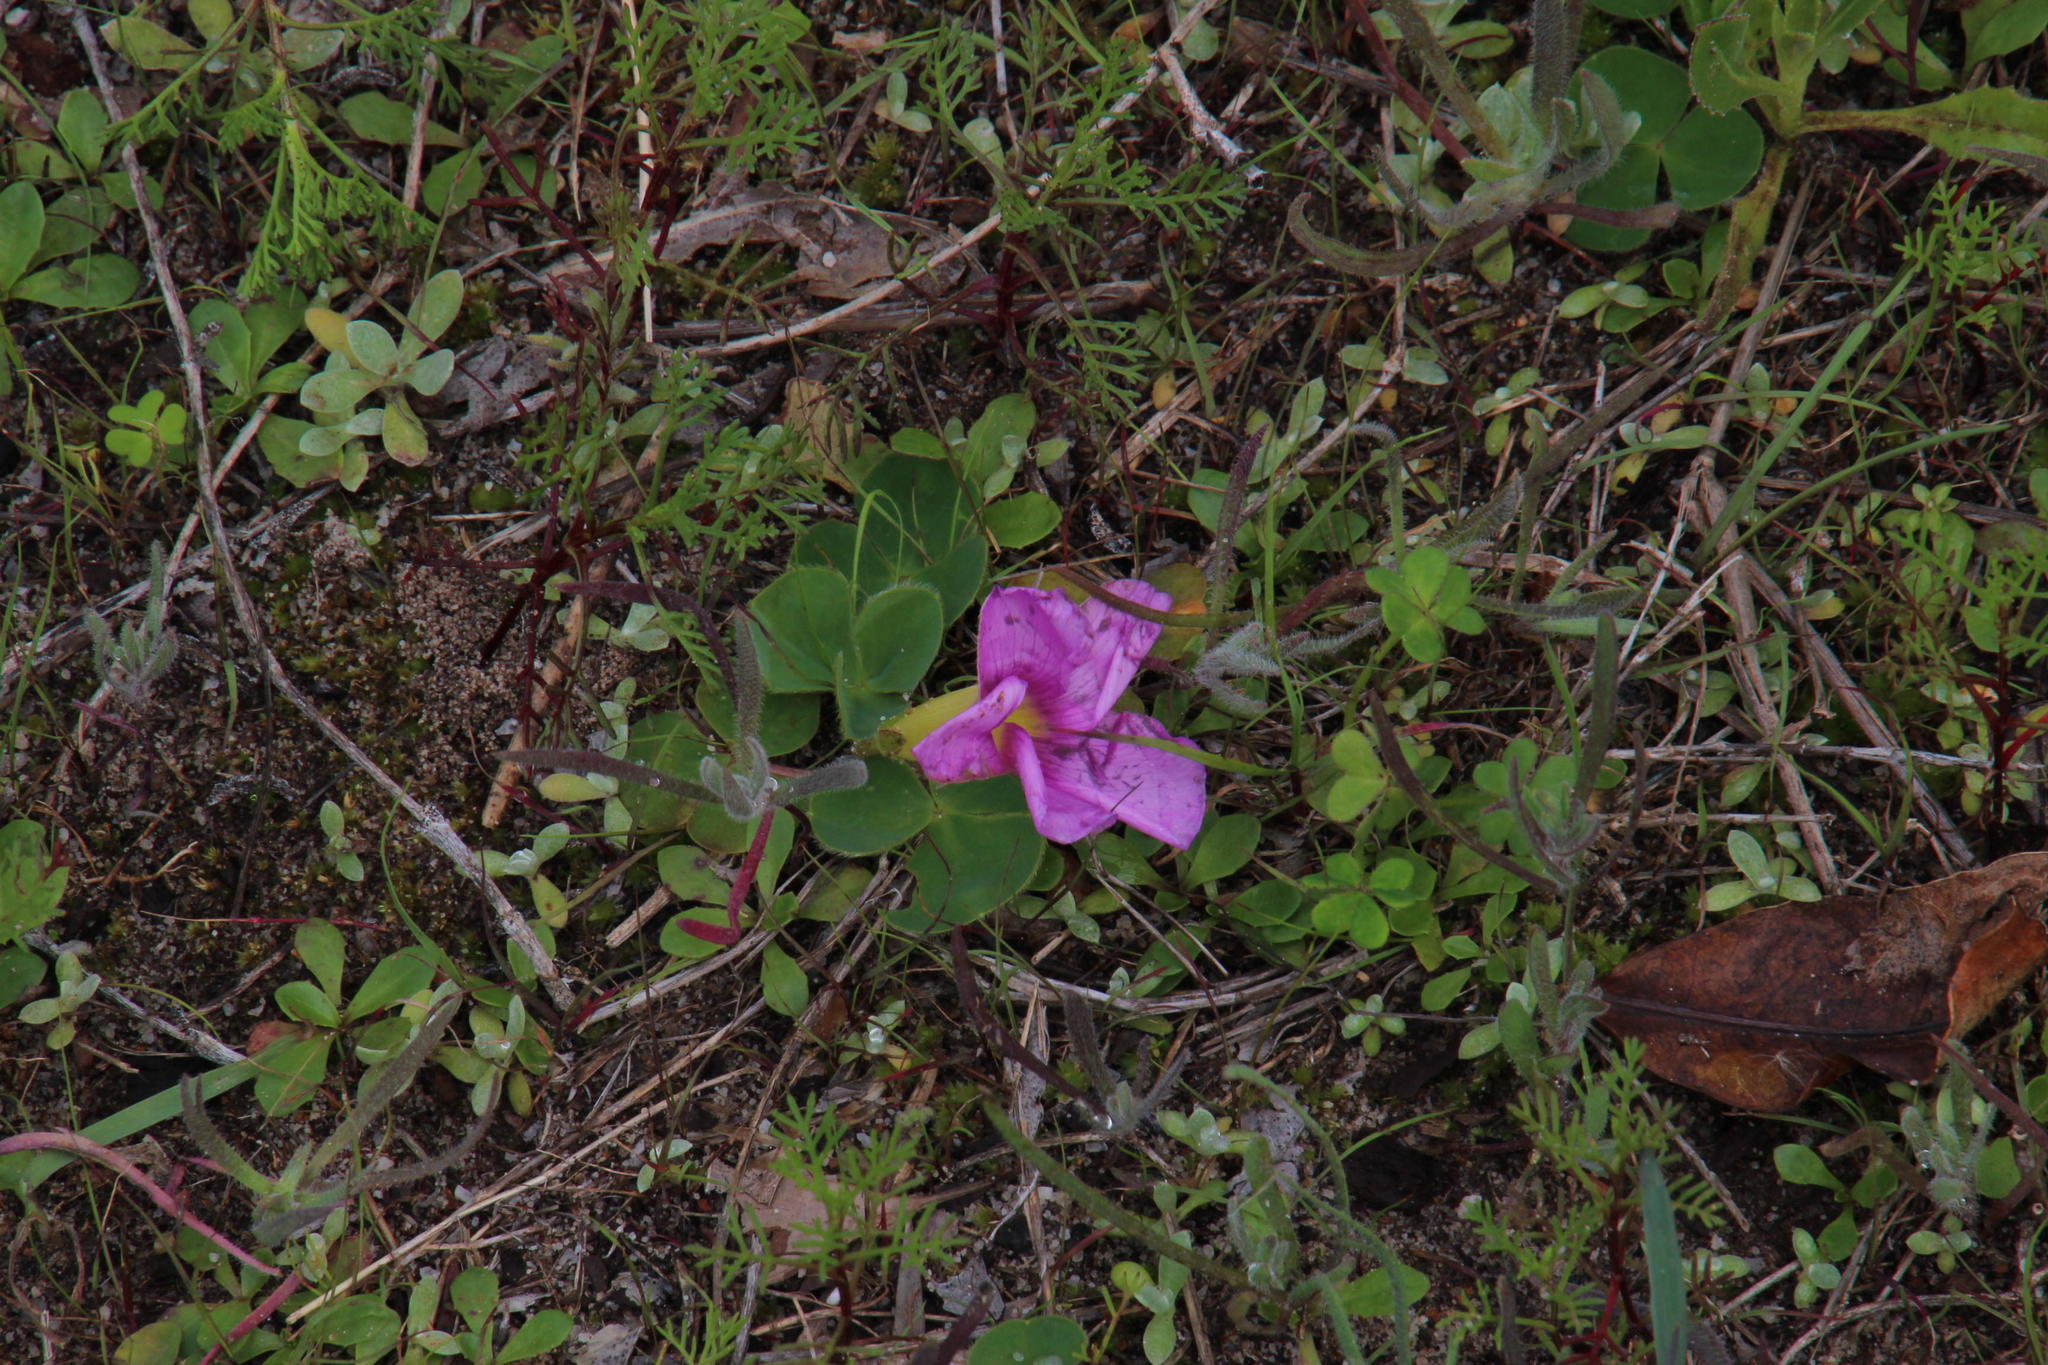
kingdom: Plantae
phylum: Tracheophyta
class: Magnoliopsida
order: Oxalidales
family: Oxalidaceae
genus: Oxalis
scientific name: Oxalis purpurea
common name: Purple woodsorrel
